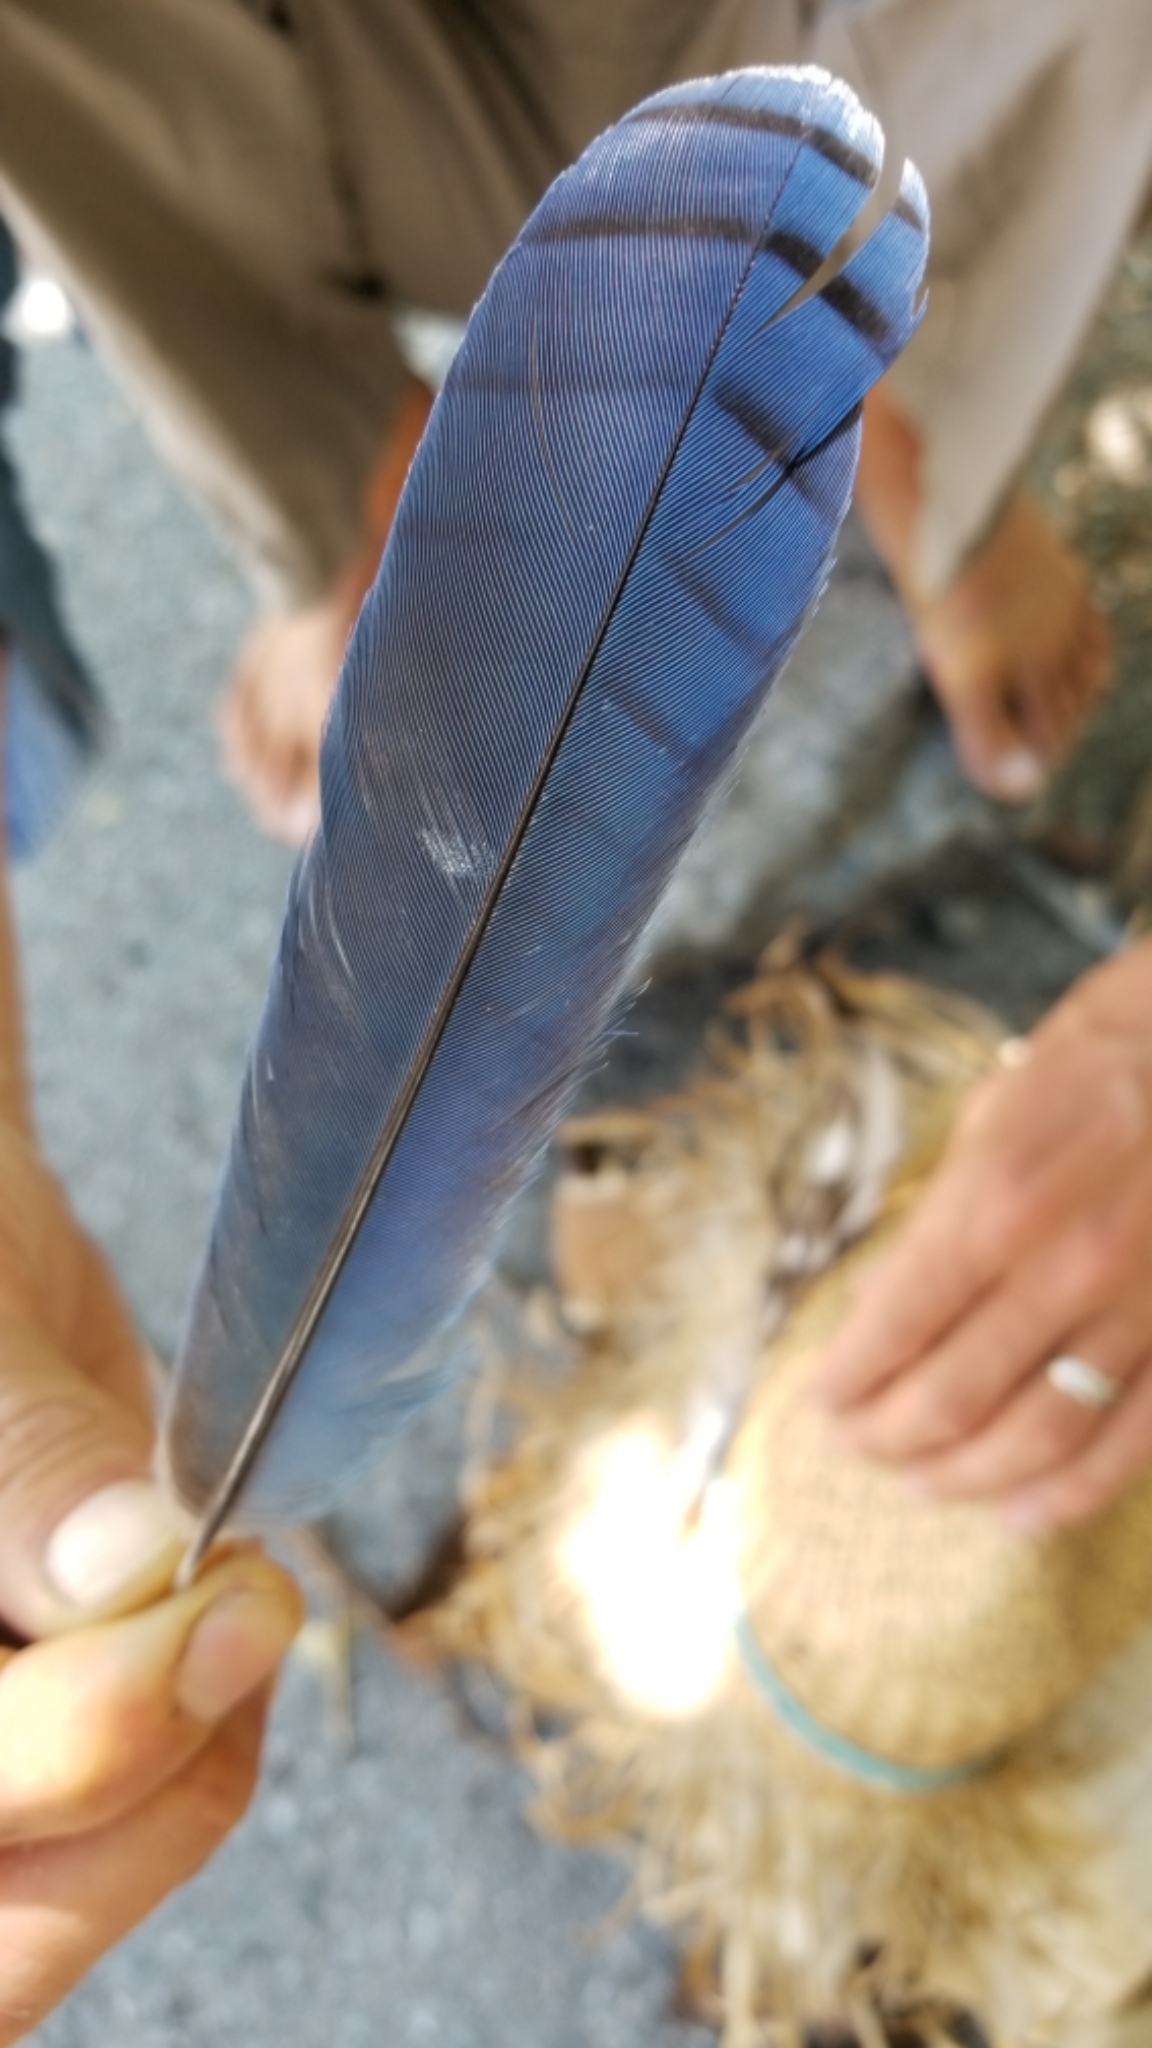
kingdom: Animalia
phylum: Chordata
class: Aves
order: Passeriformes
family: Corvidae
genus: Cyanocitta
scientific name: Cyanocitta stelleri
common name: Steller's jay
